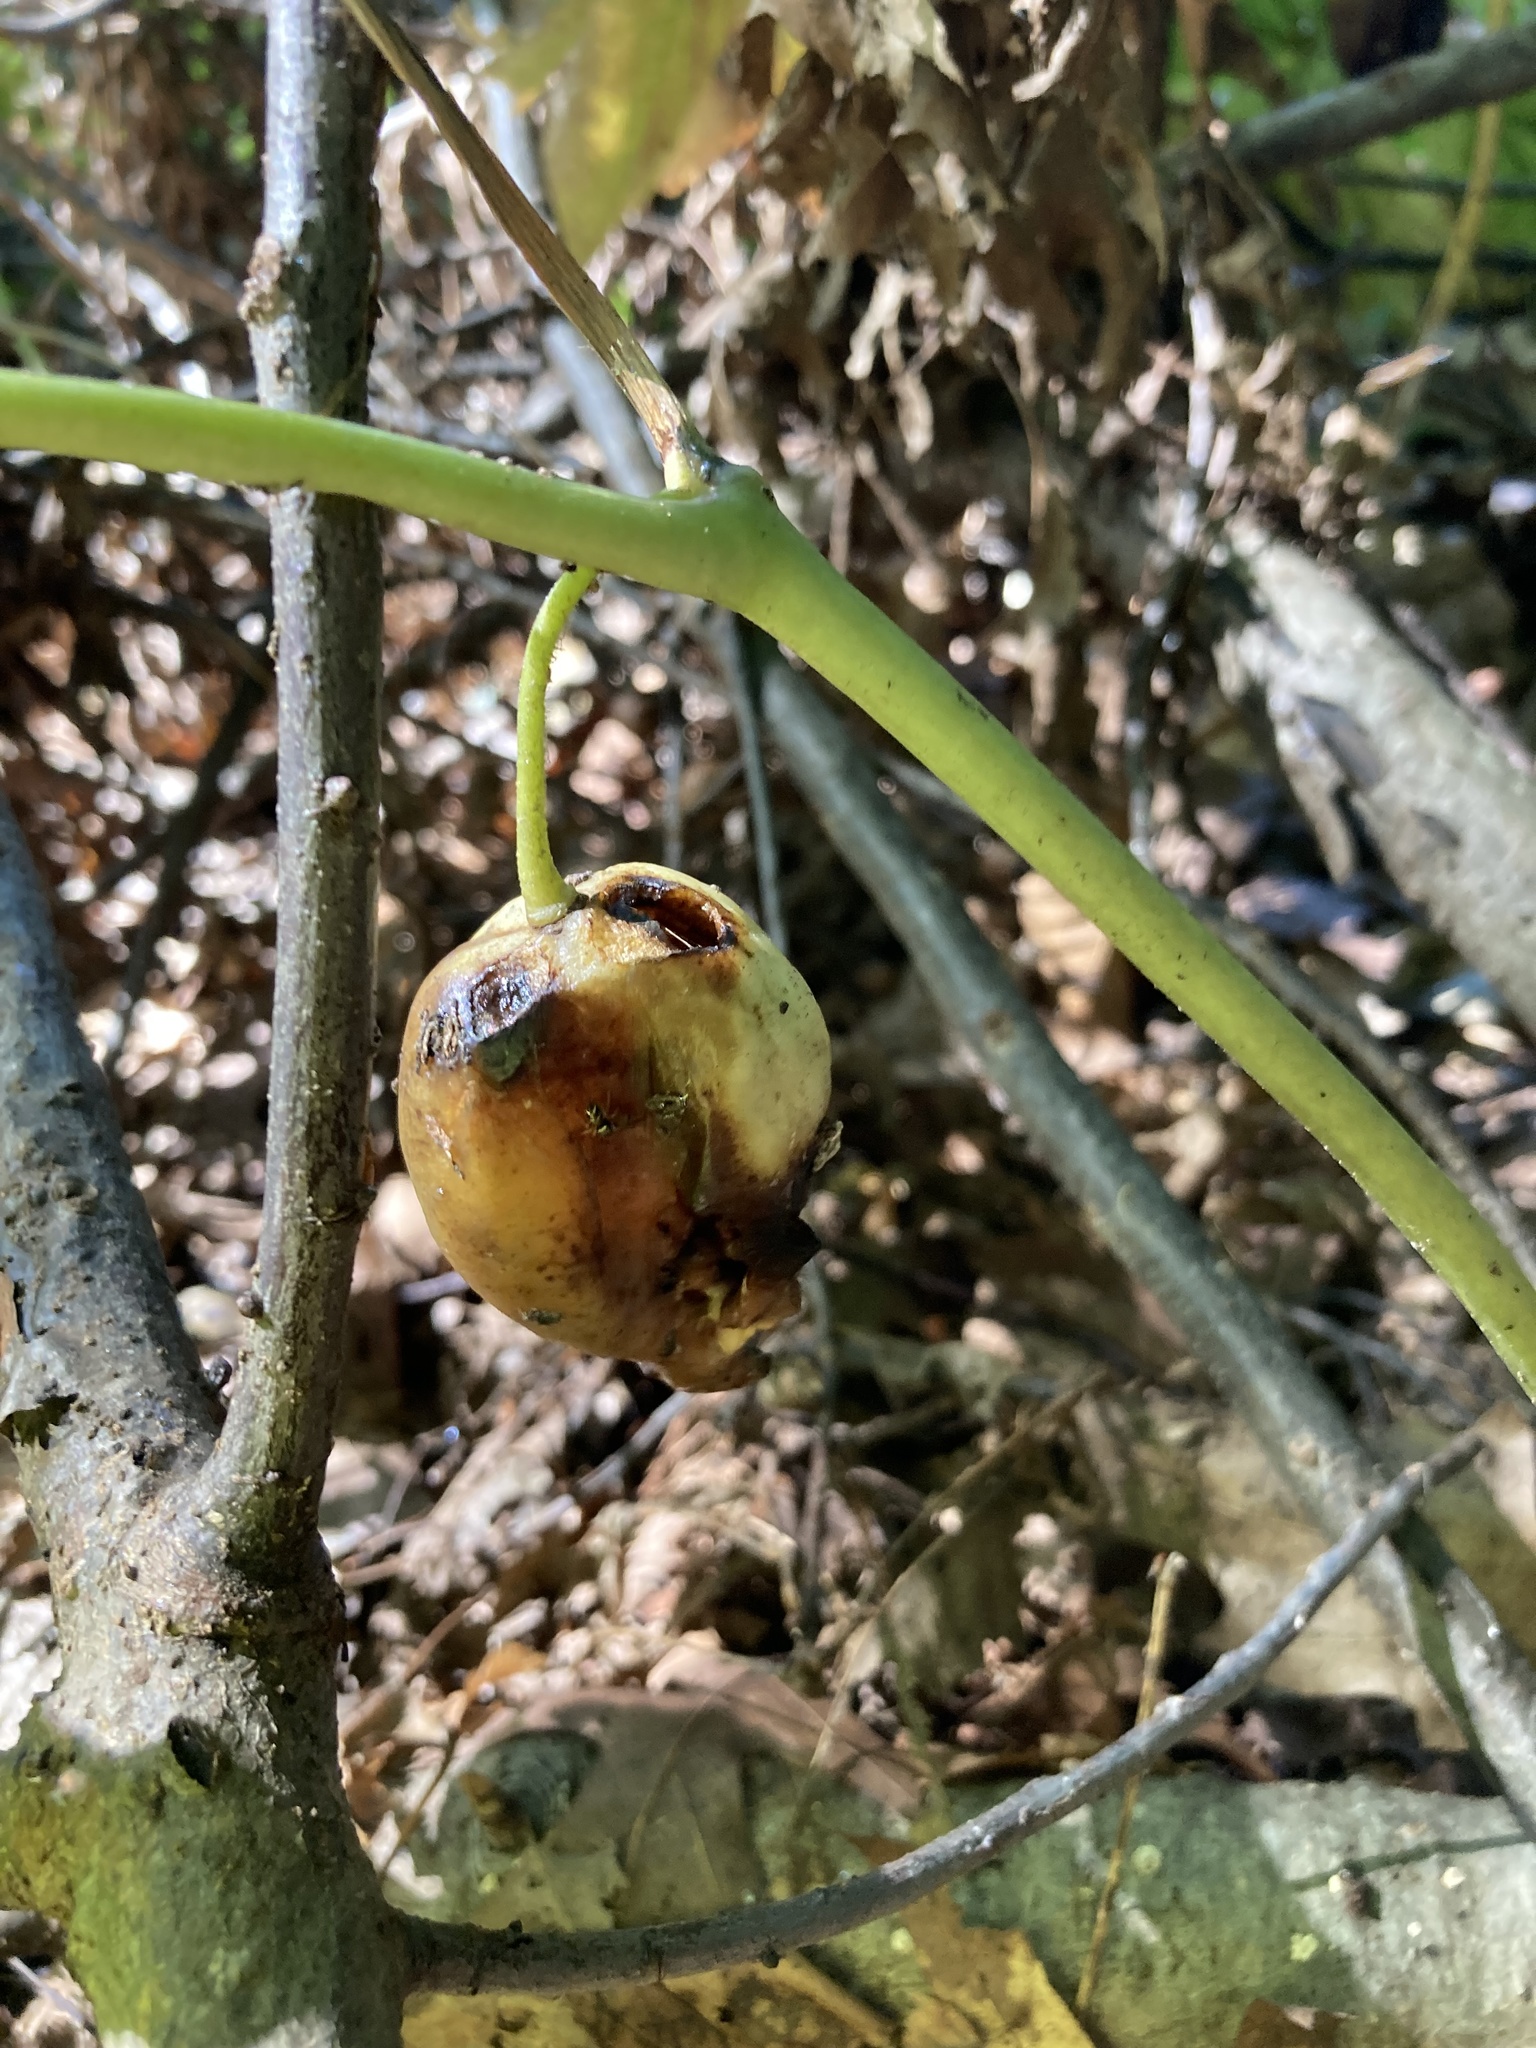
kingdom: Plantae
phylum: Tracheophyta
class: Magnoliopsida
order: Ranunculales
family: Berberidaceae
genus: Podophyllum
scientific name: Podophyllum peltatum
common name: Wild mandrake
